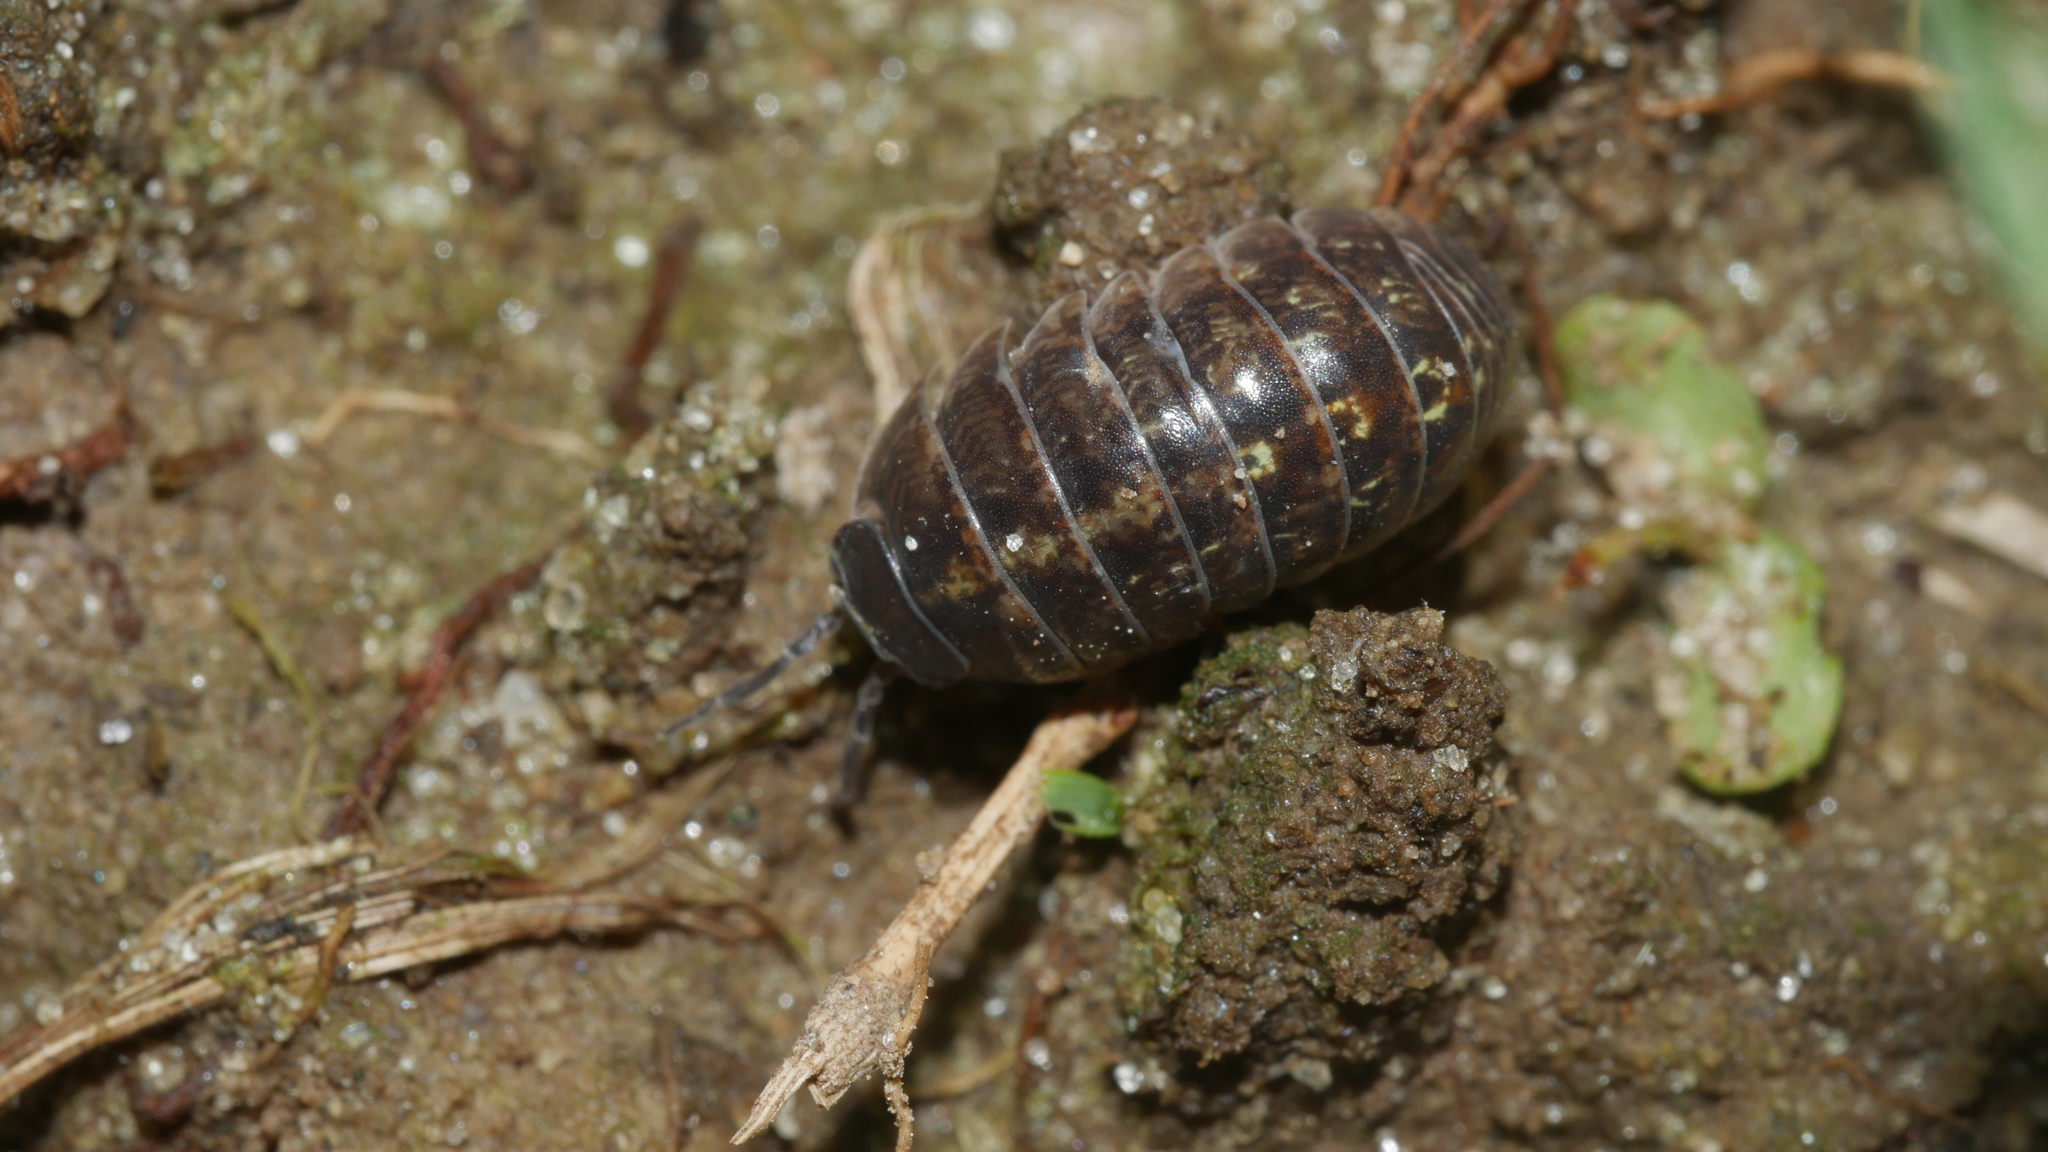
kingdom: Animalia
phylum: Arthropoda
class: Malacostraca
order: Isopoda
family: Armadillidiidae
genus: Armadillidium
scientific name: Armadillidium vulgare
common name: Common pill woodlouse
